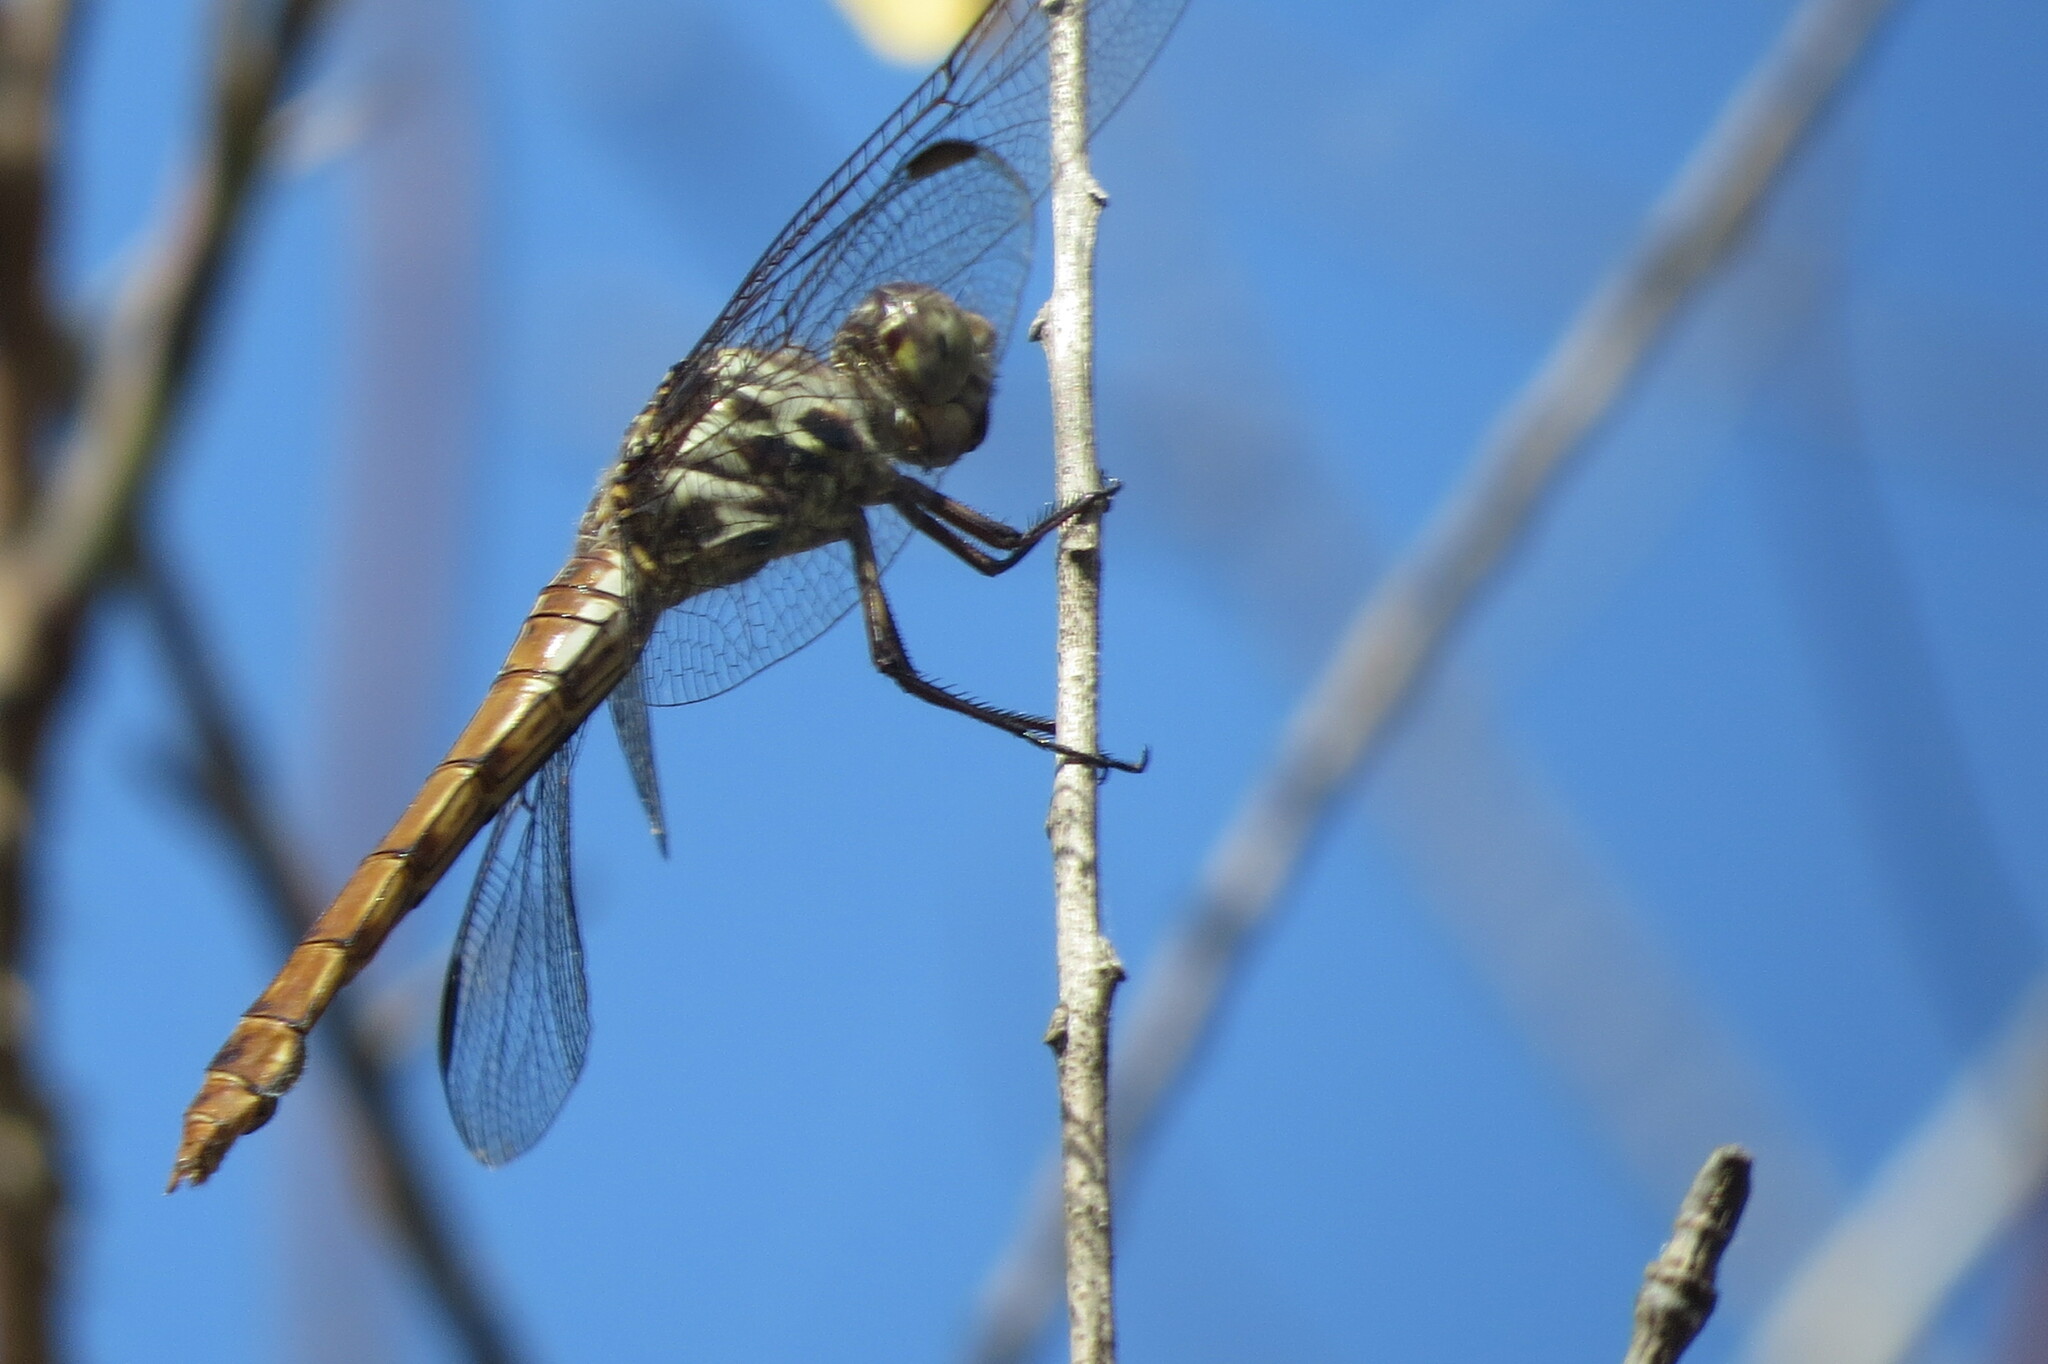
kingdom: Animalia
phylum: Arthropoda
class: Insecta
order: Odonata
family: Libellulidae
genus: Orthemis
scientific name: Orthemis ferruginea
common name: Roseate skimmer
